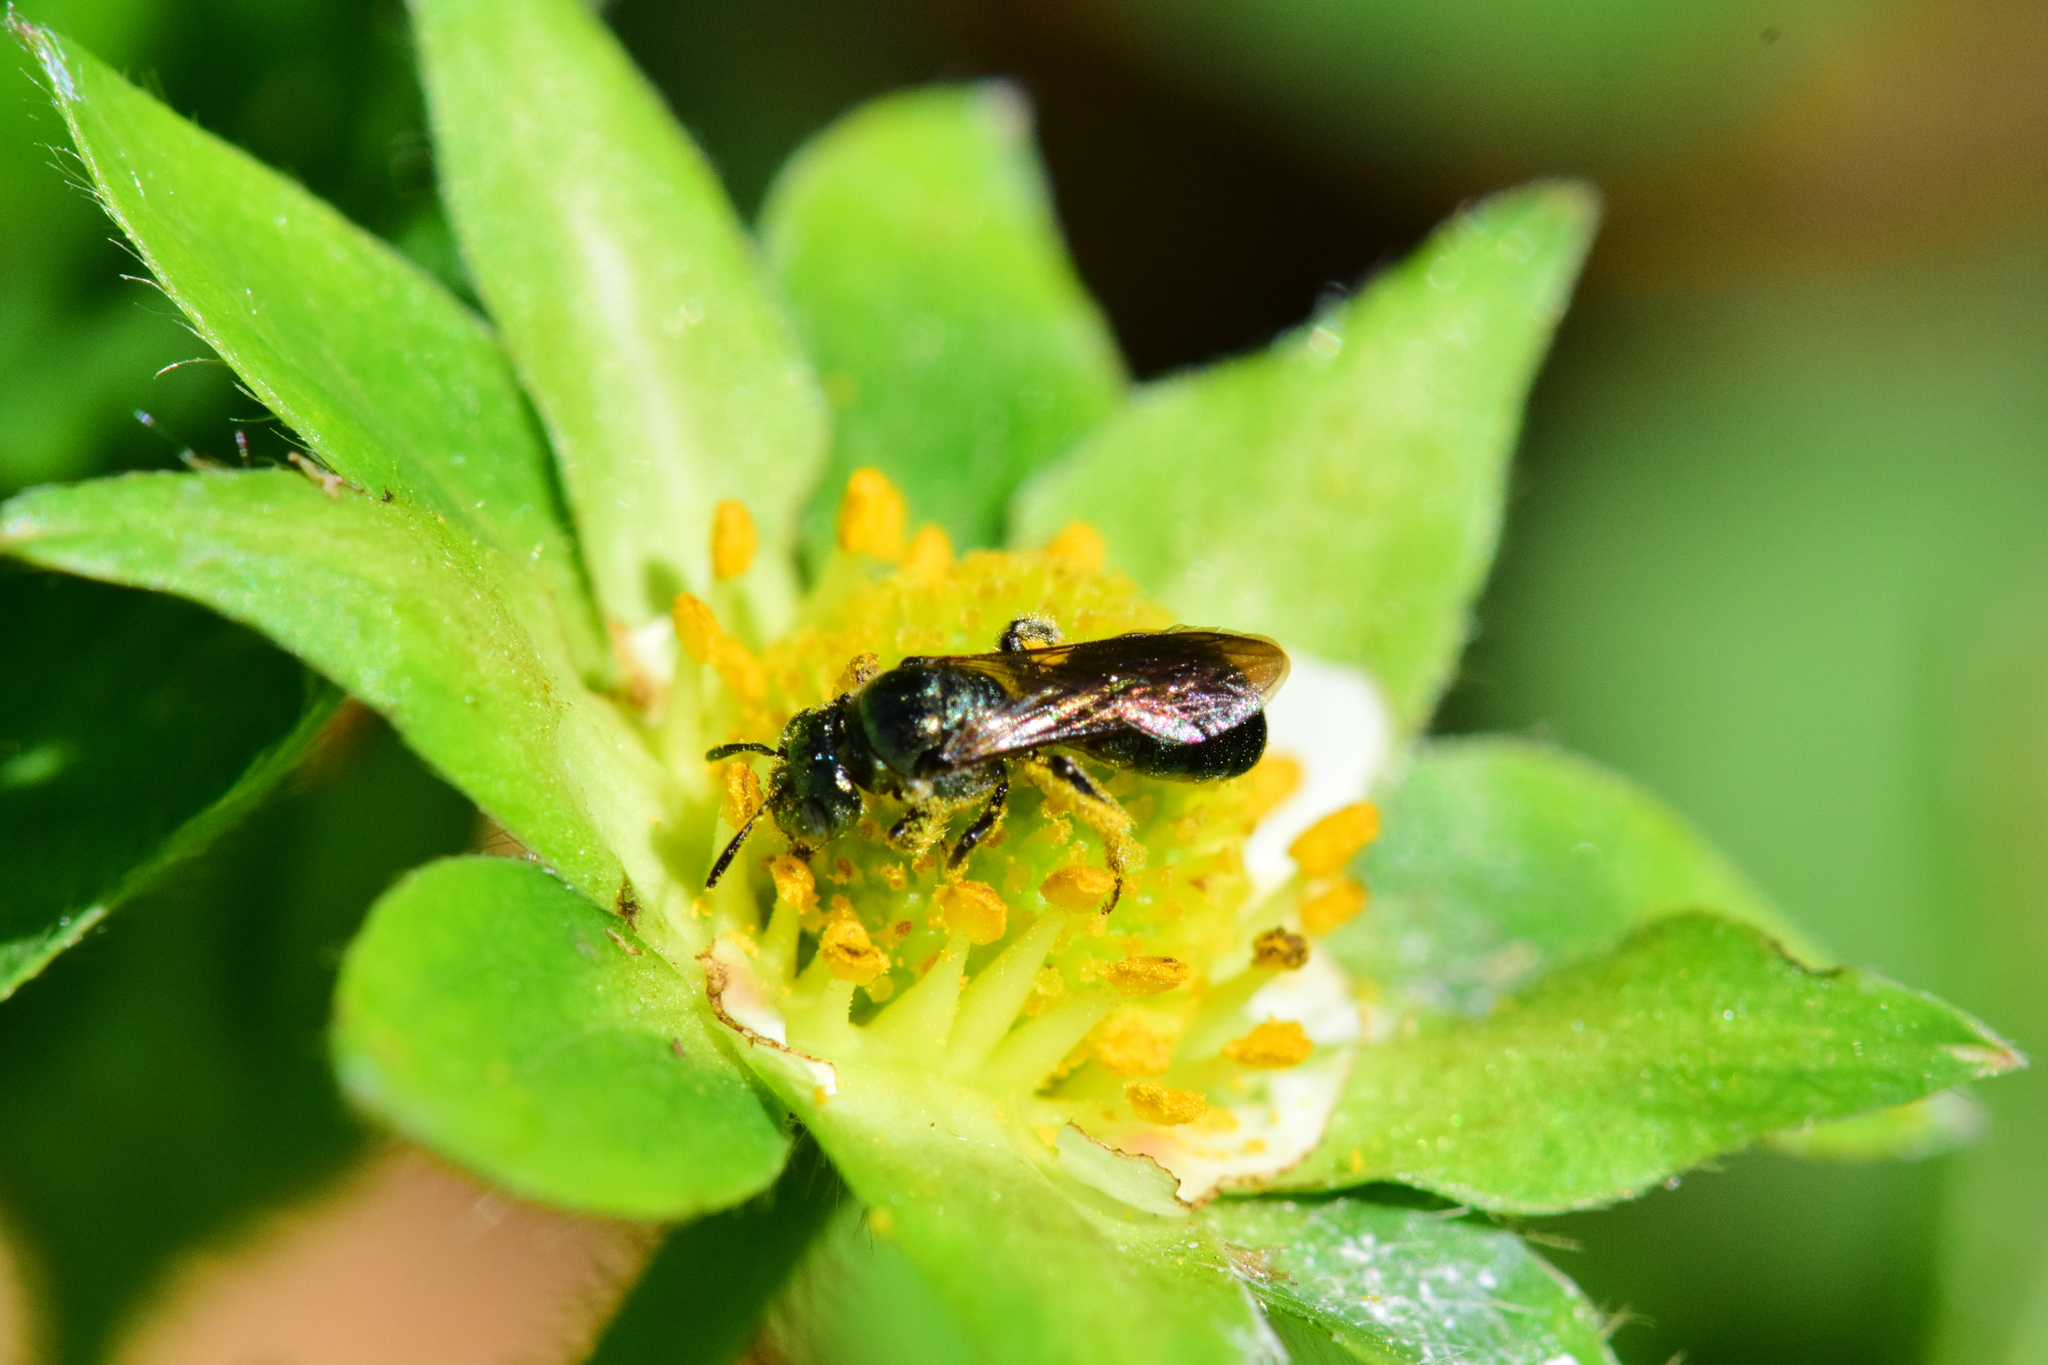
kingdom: Animalia
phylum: Arthropoda
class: Insecta
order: Hymenoptera
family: Apidae
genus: Ceratina
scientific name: Ceratina dupla
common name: Doubled carpenter bee
